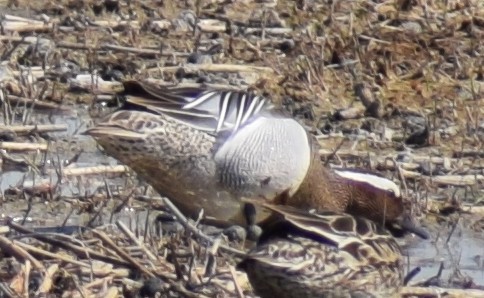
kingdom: Animalia
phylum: Chordata
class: Aves
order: Anseriformes
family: Anatidae
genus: Spatula
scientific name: Spatula querquedula
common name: Garganey
